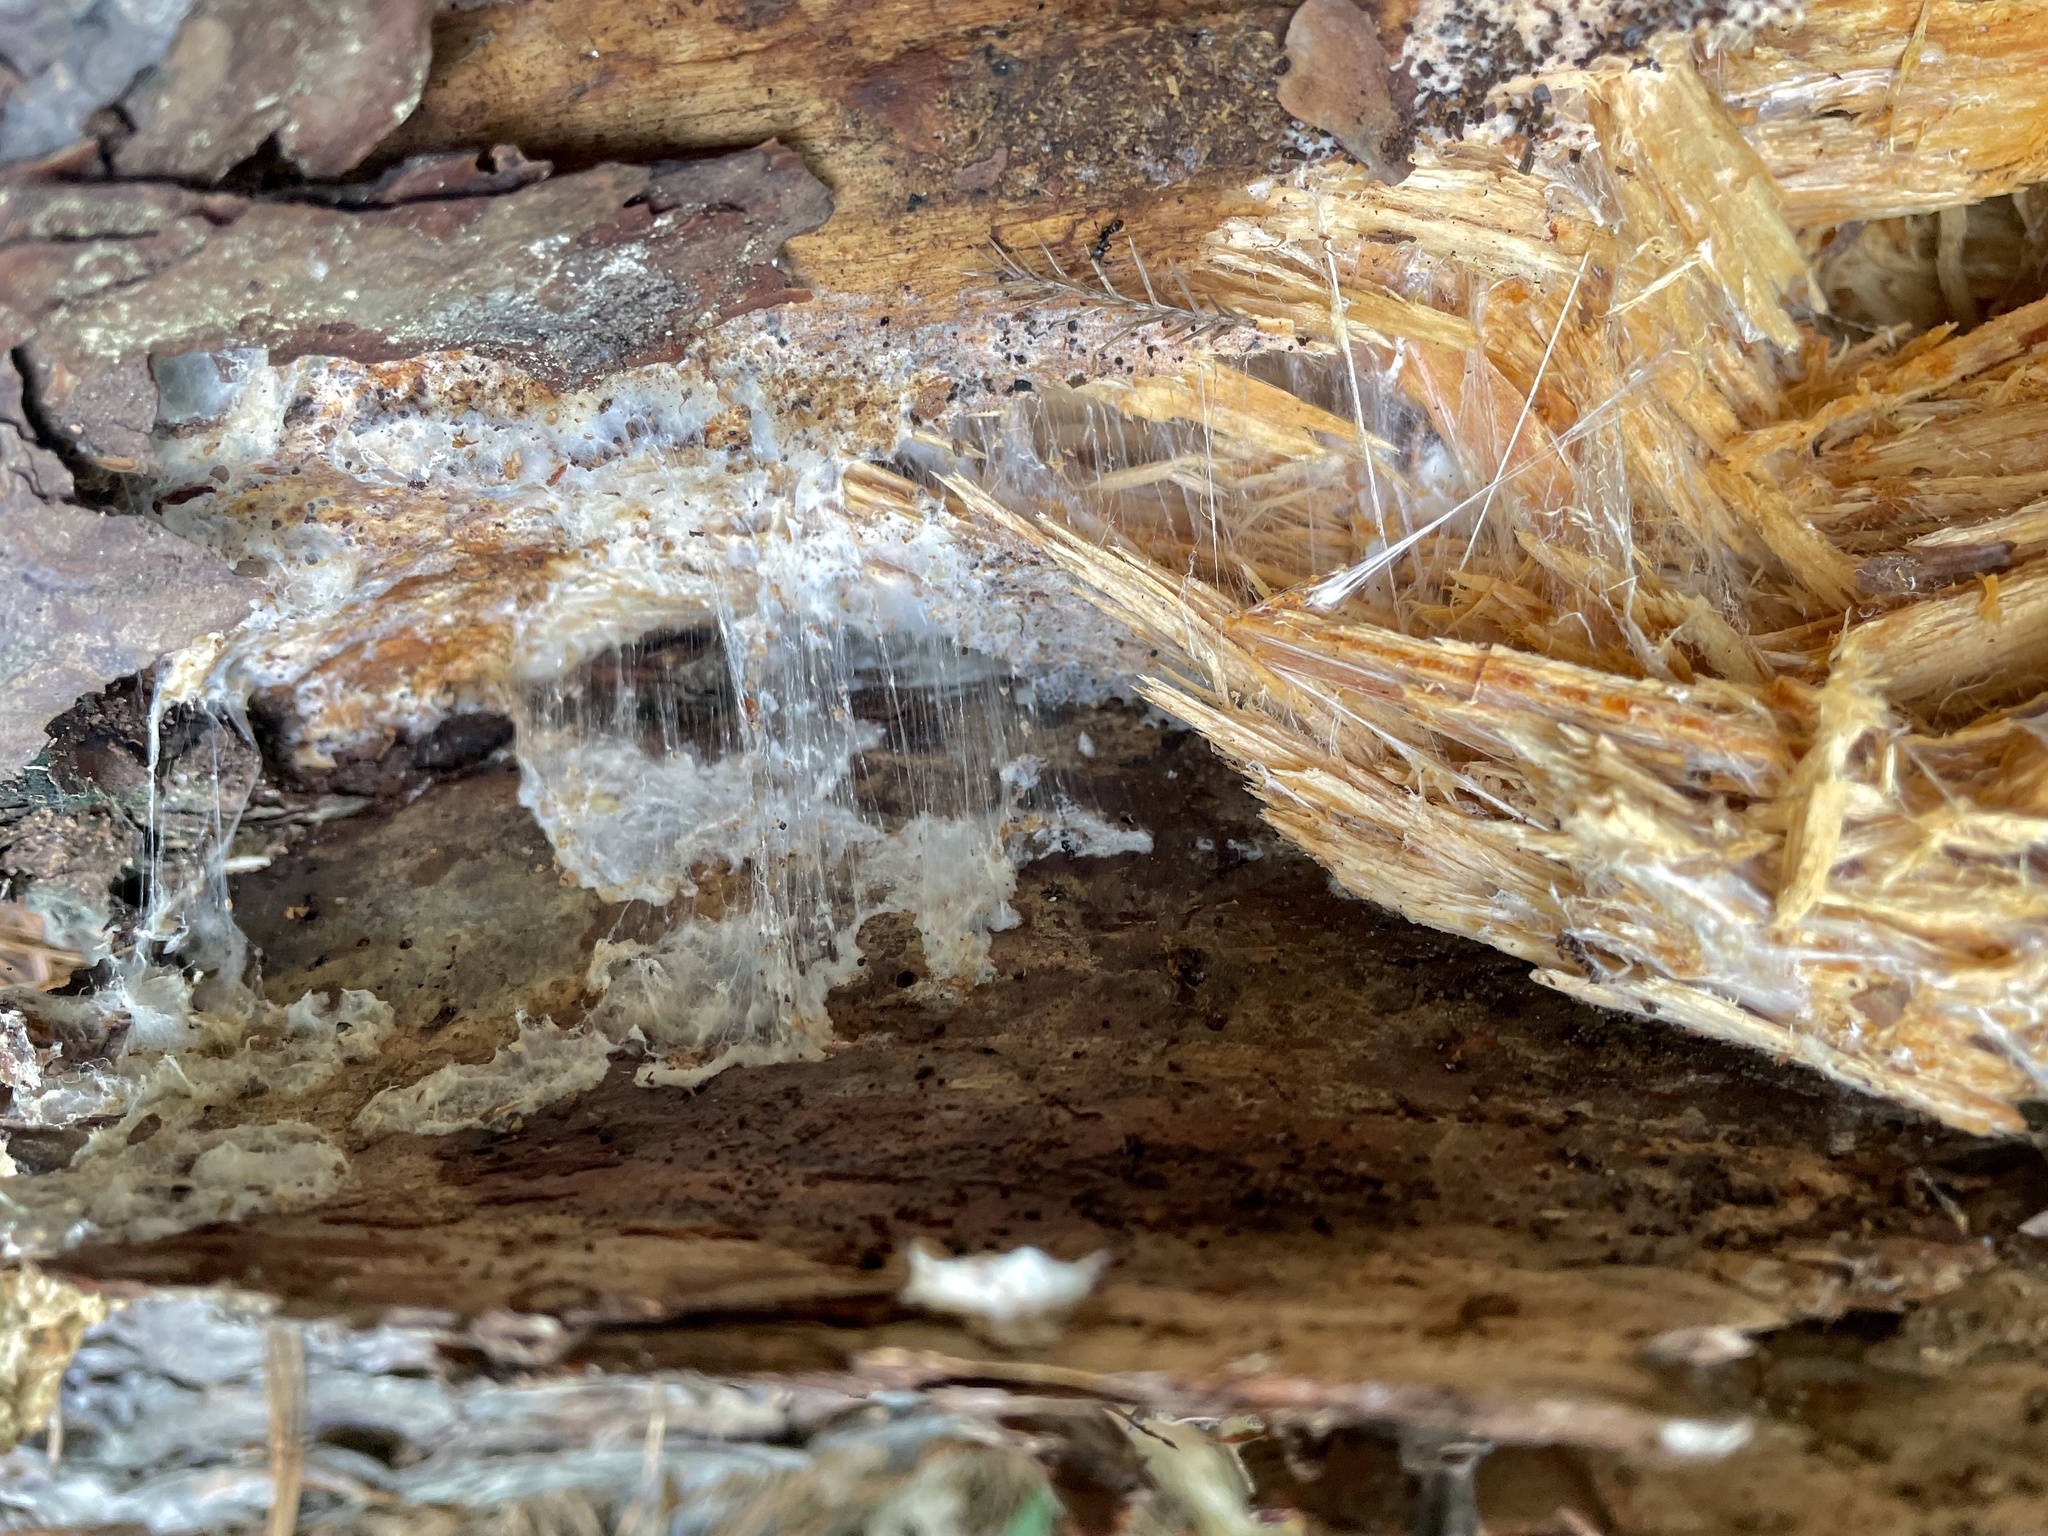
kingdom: Fungi
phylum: Basidiomycota
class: Agaricomycetes
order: Russulales
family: Bondarzewiaceae
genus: Wrightoporia
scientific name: Wrightoporia austrosinensis
